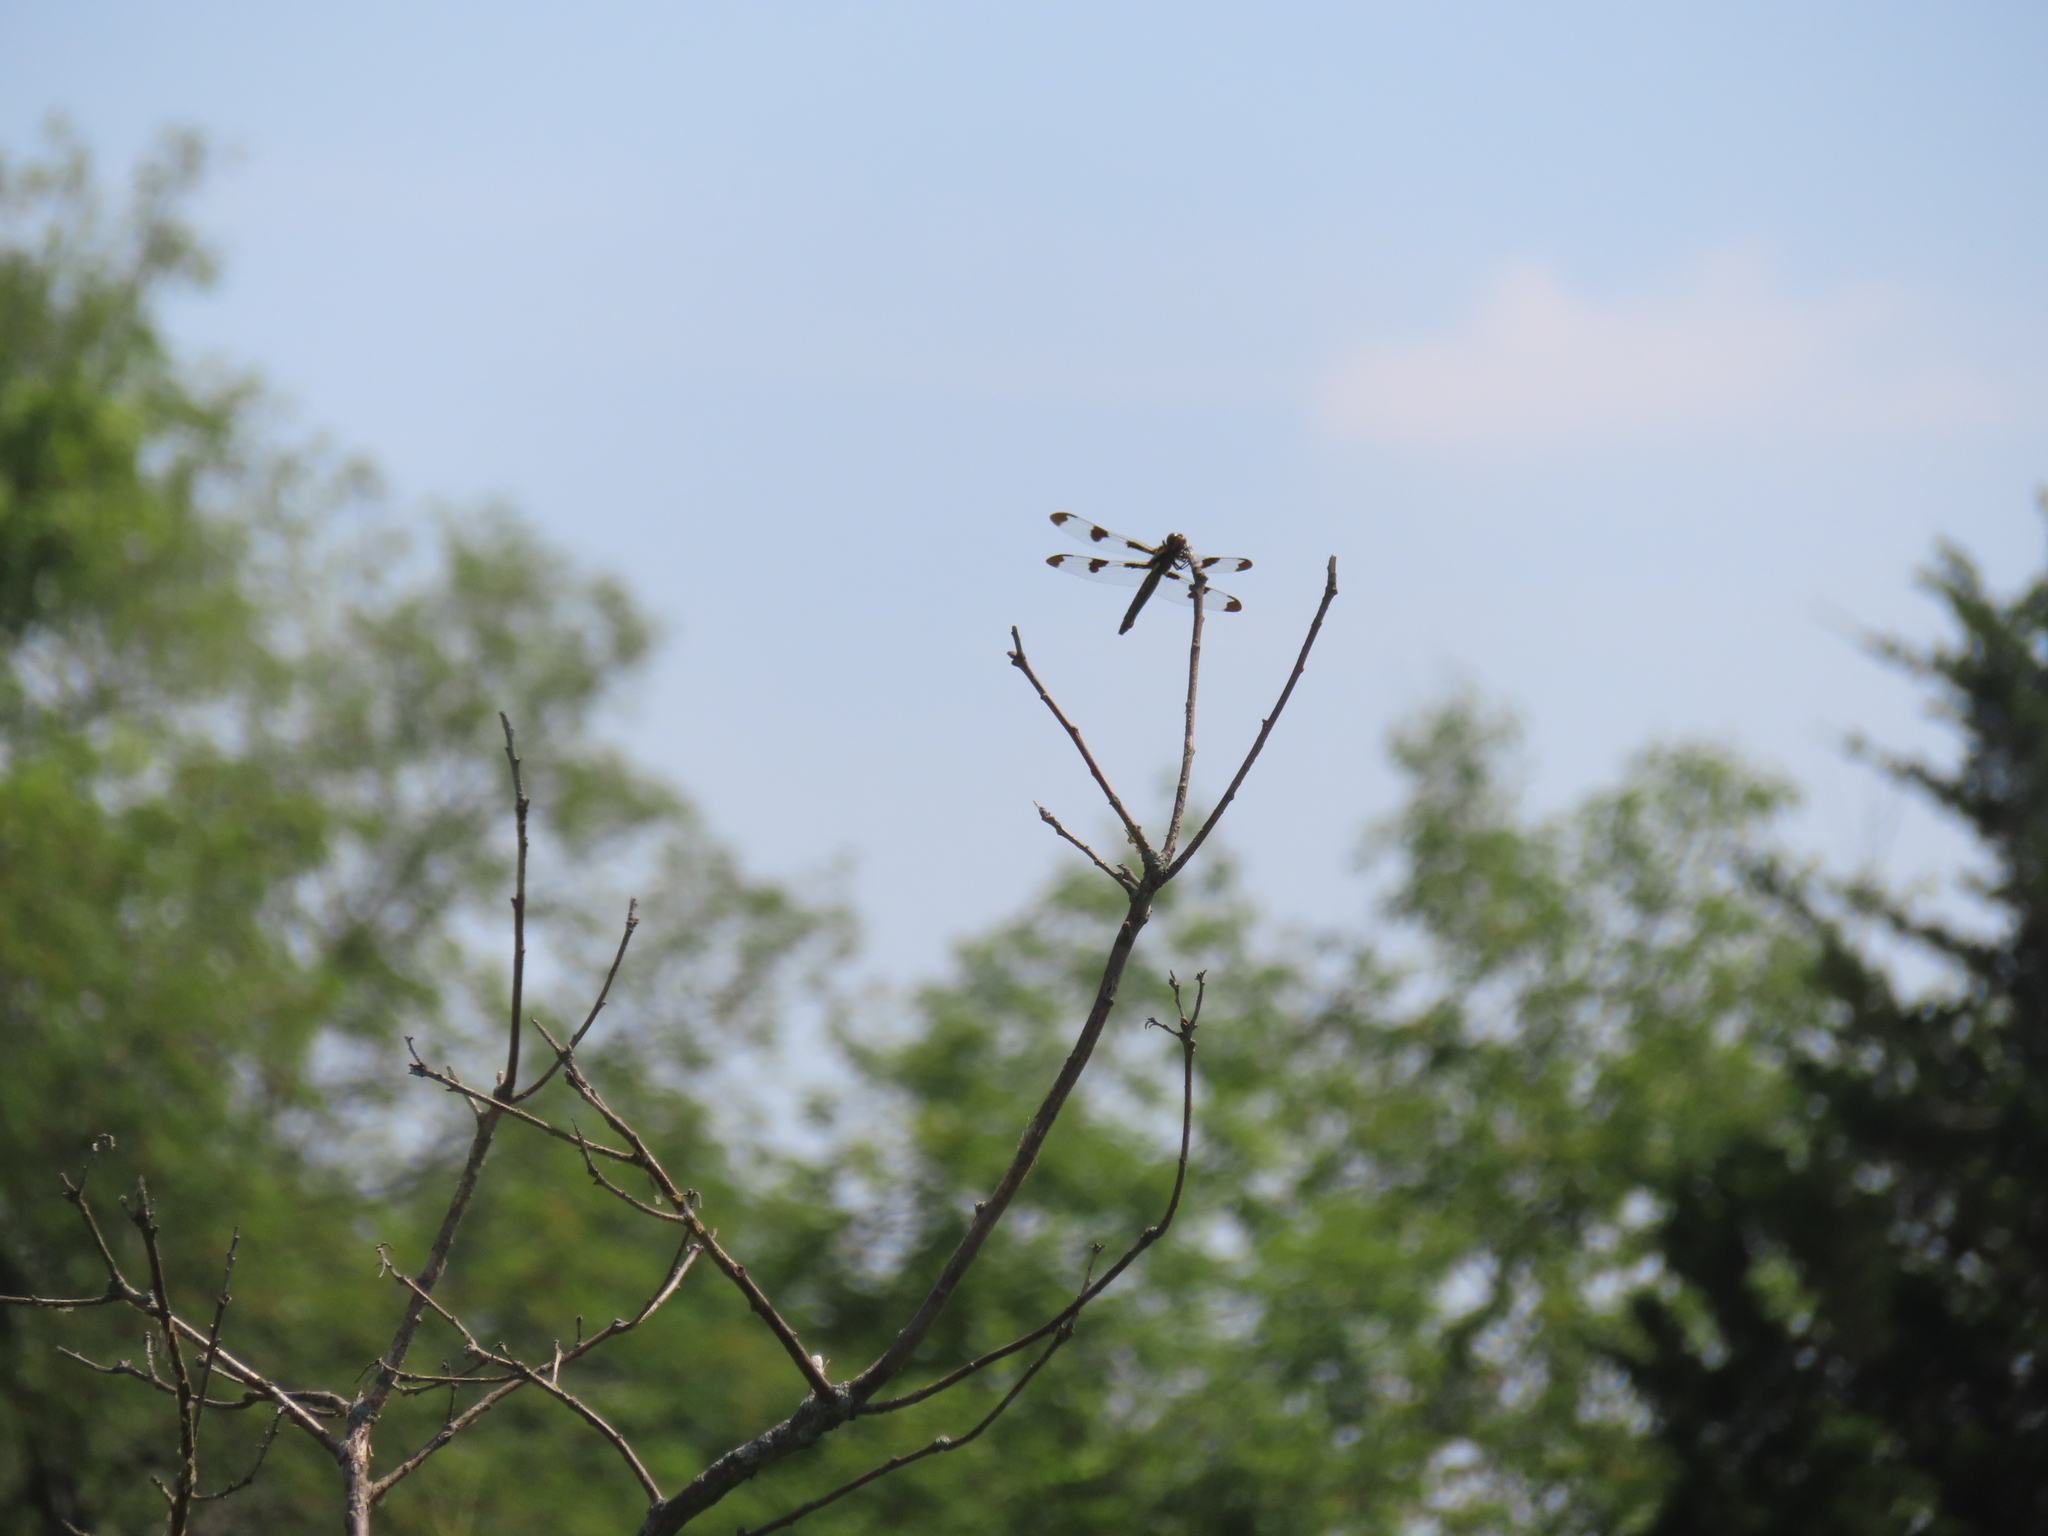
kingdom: Animalia
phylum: Arthropoda
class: Insecta
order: Odonata
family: Libellulidae
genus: Libellula
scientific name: Libellula pulchella
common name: Twelve-spotted skimmer
